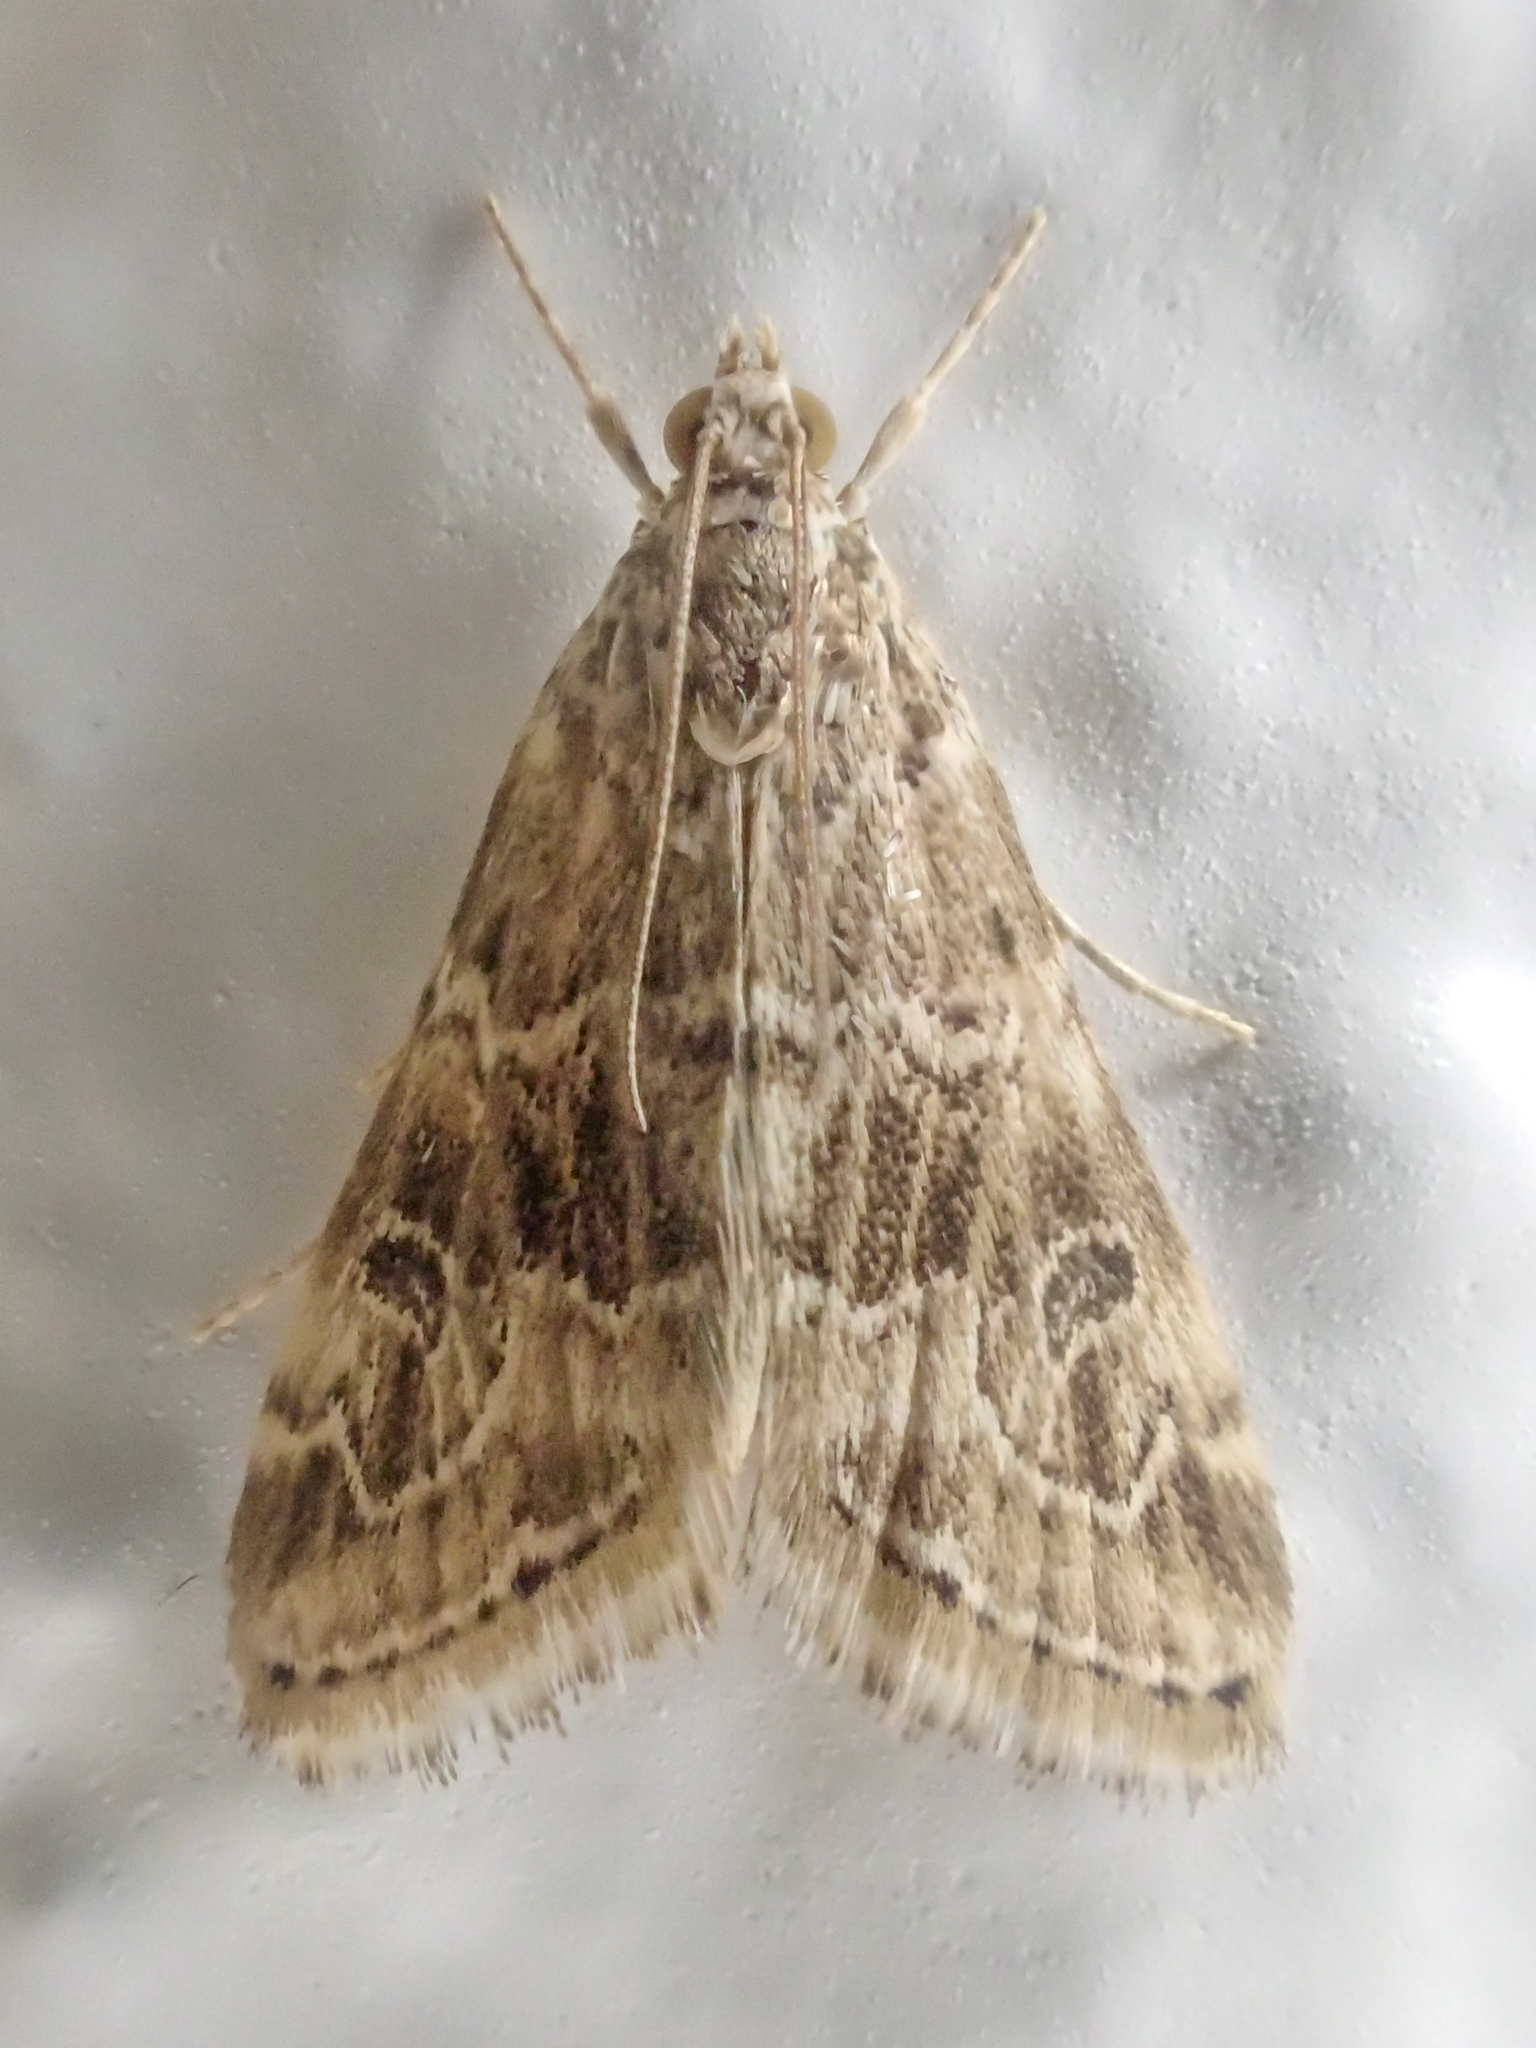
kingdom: Animalia
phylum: Arthropoda
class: Insecta
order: Lepidoptera
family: Crambidae
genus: Hellula
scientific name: Hellula rogatalis
